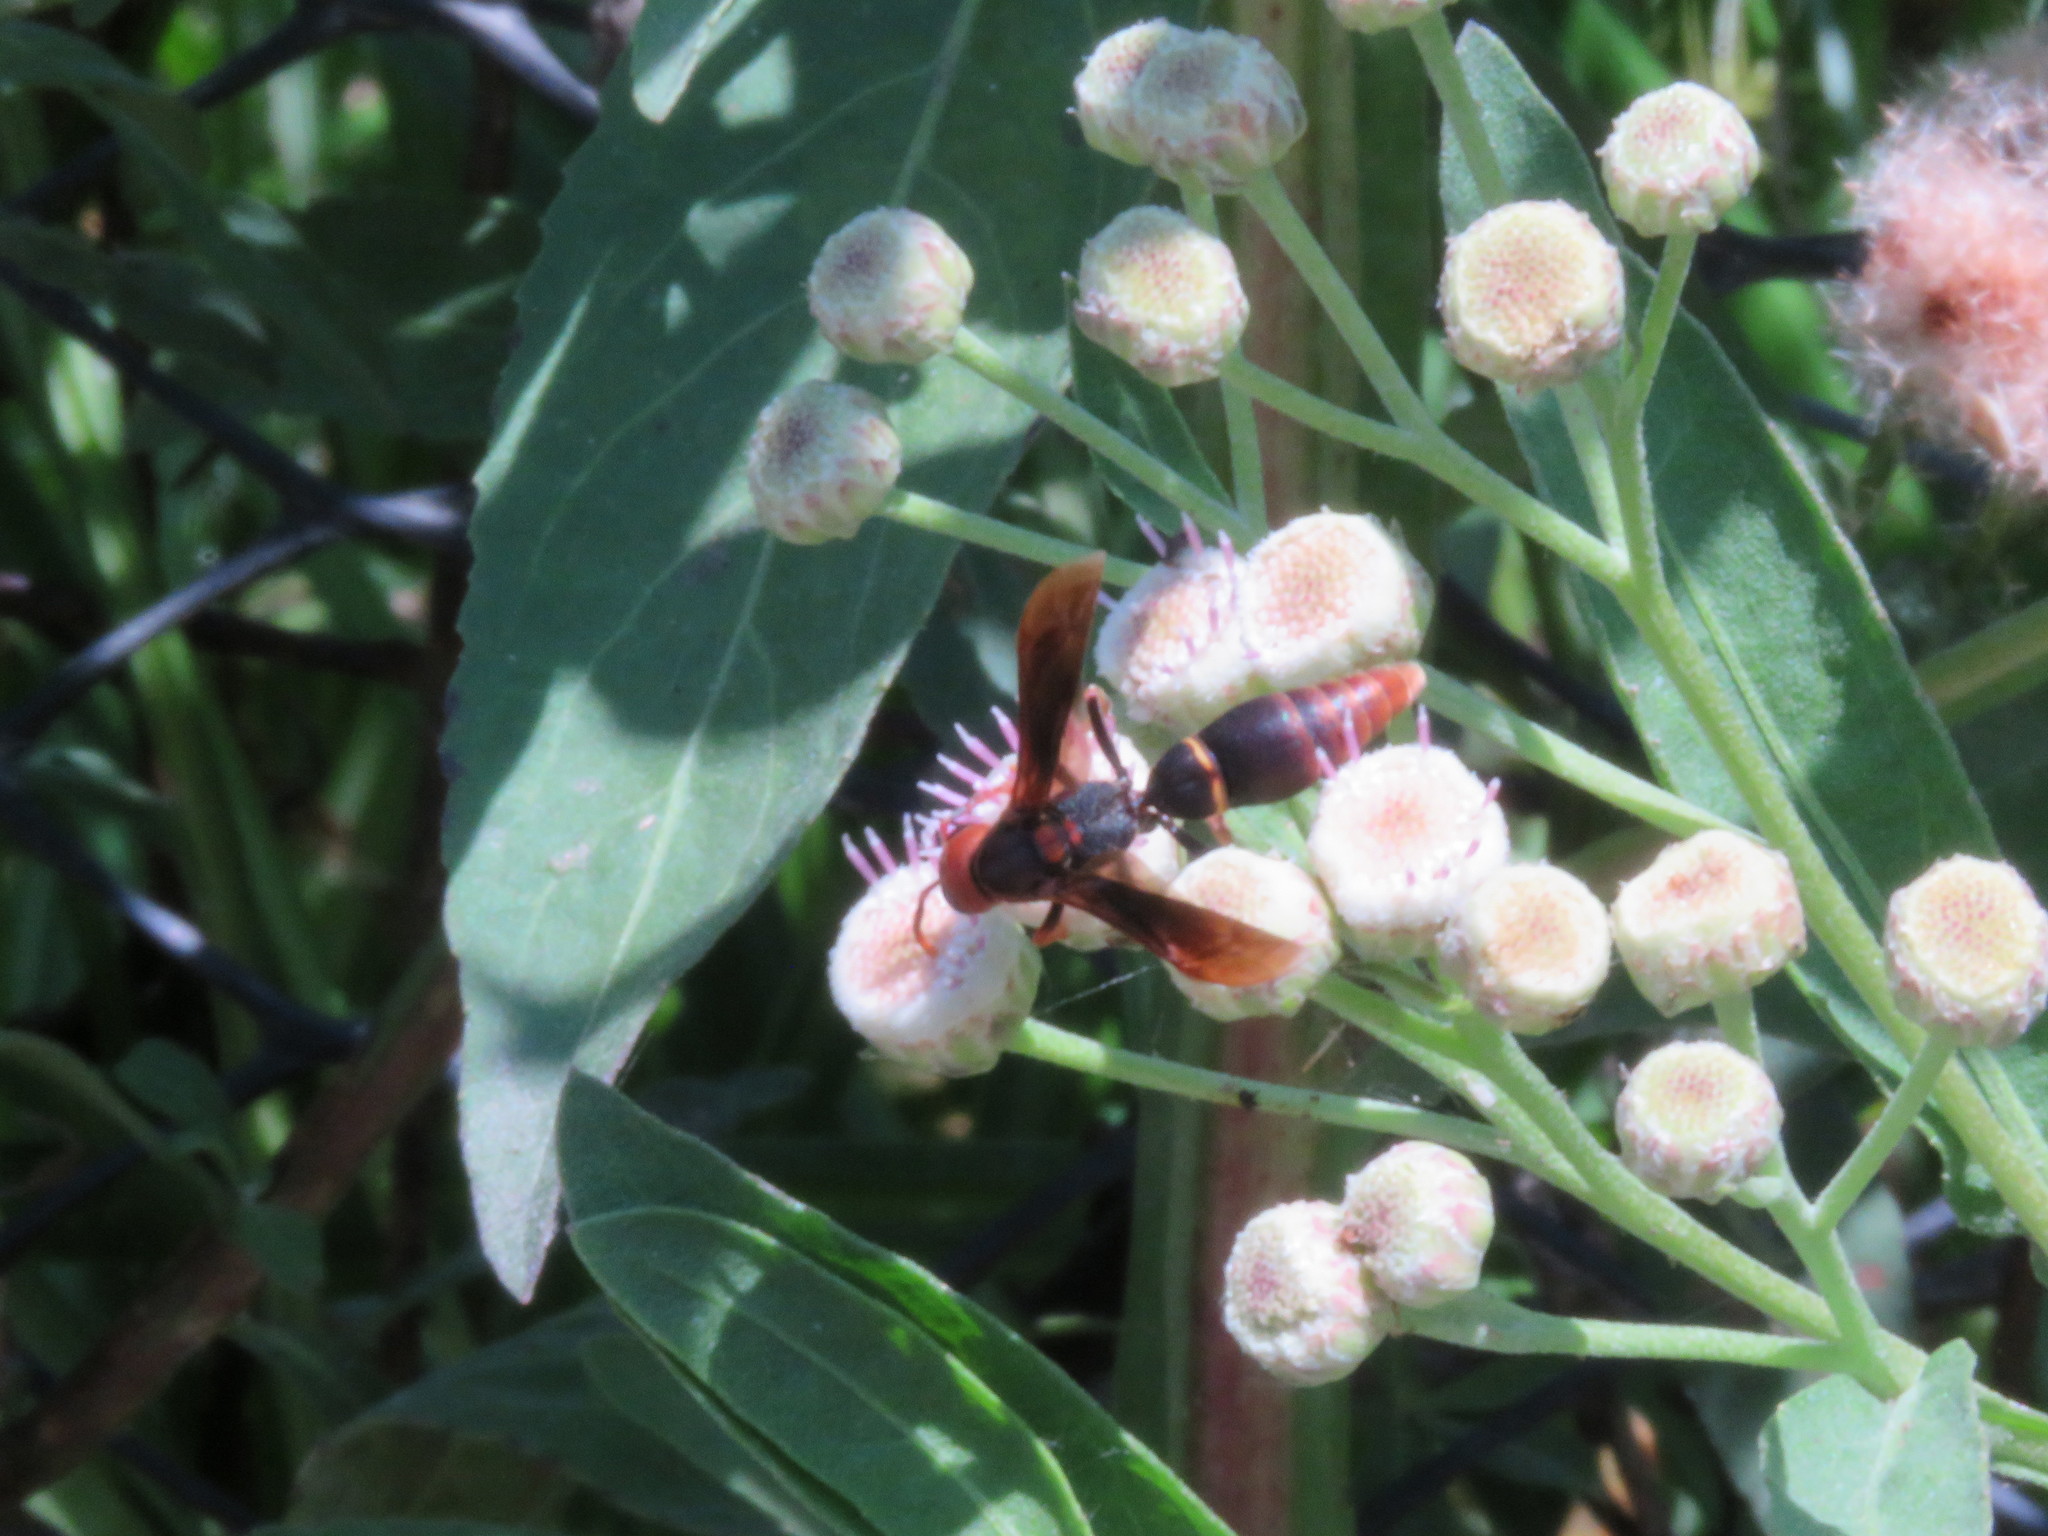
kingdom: Animalia
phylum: Arthropoda
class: Insecta
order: Hymenoptera
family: Eumenidae
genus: Montezumia
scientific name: Montezumia ferruginea
